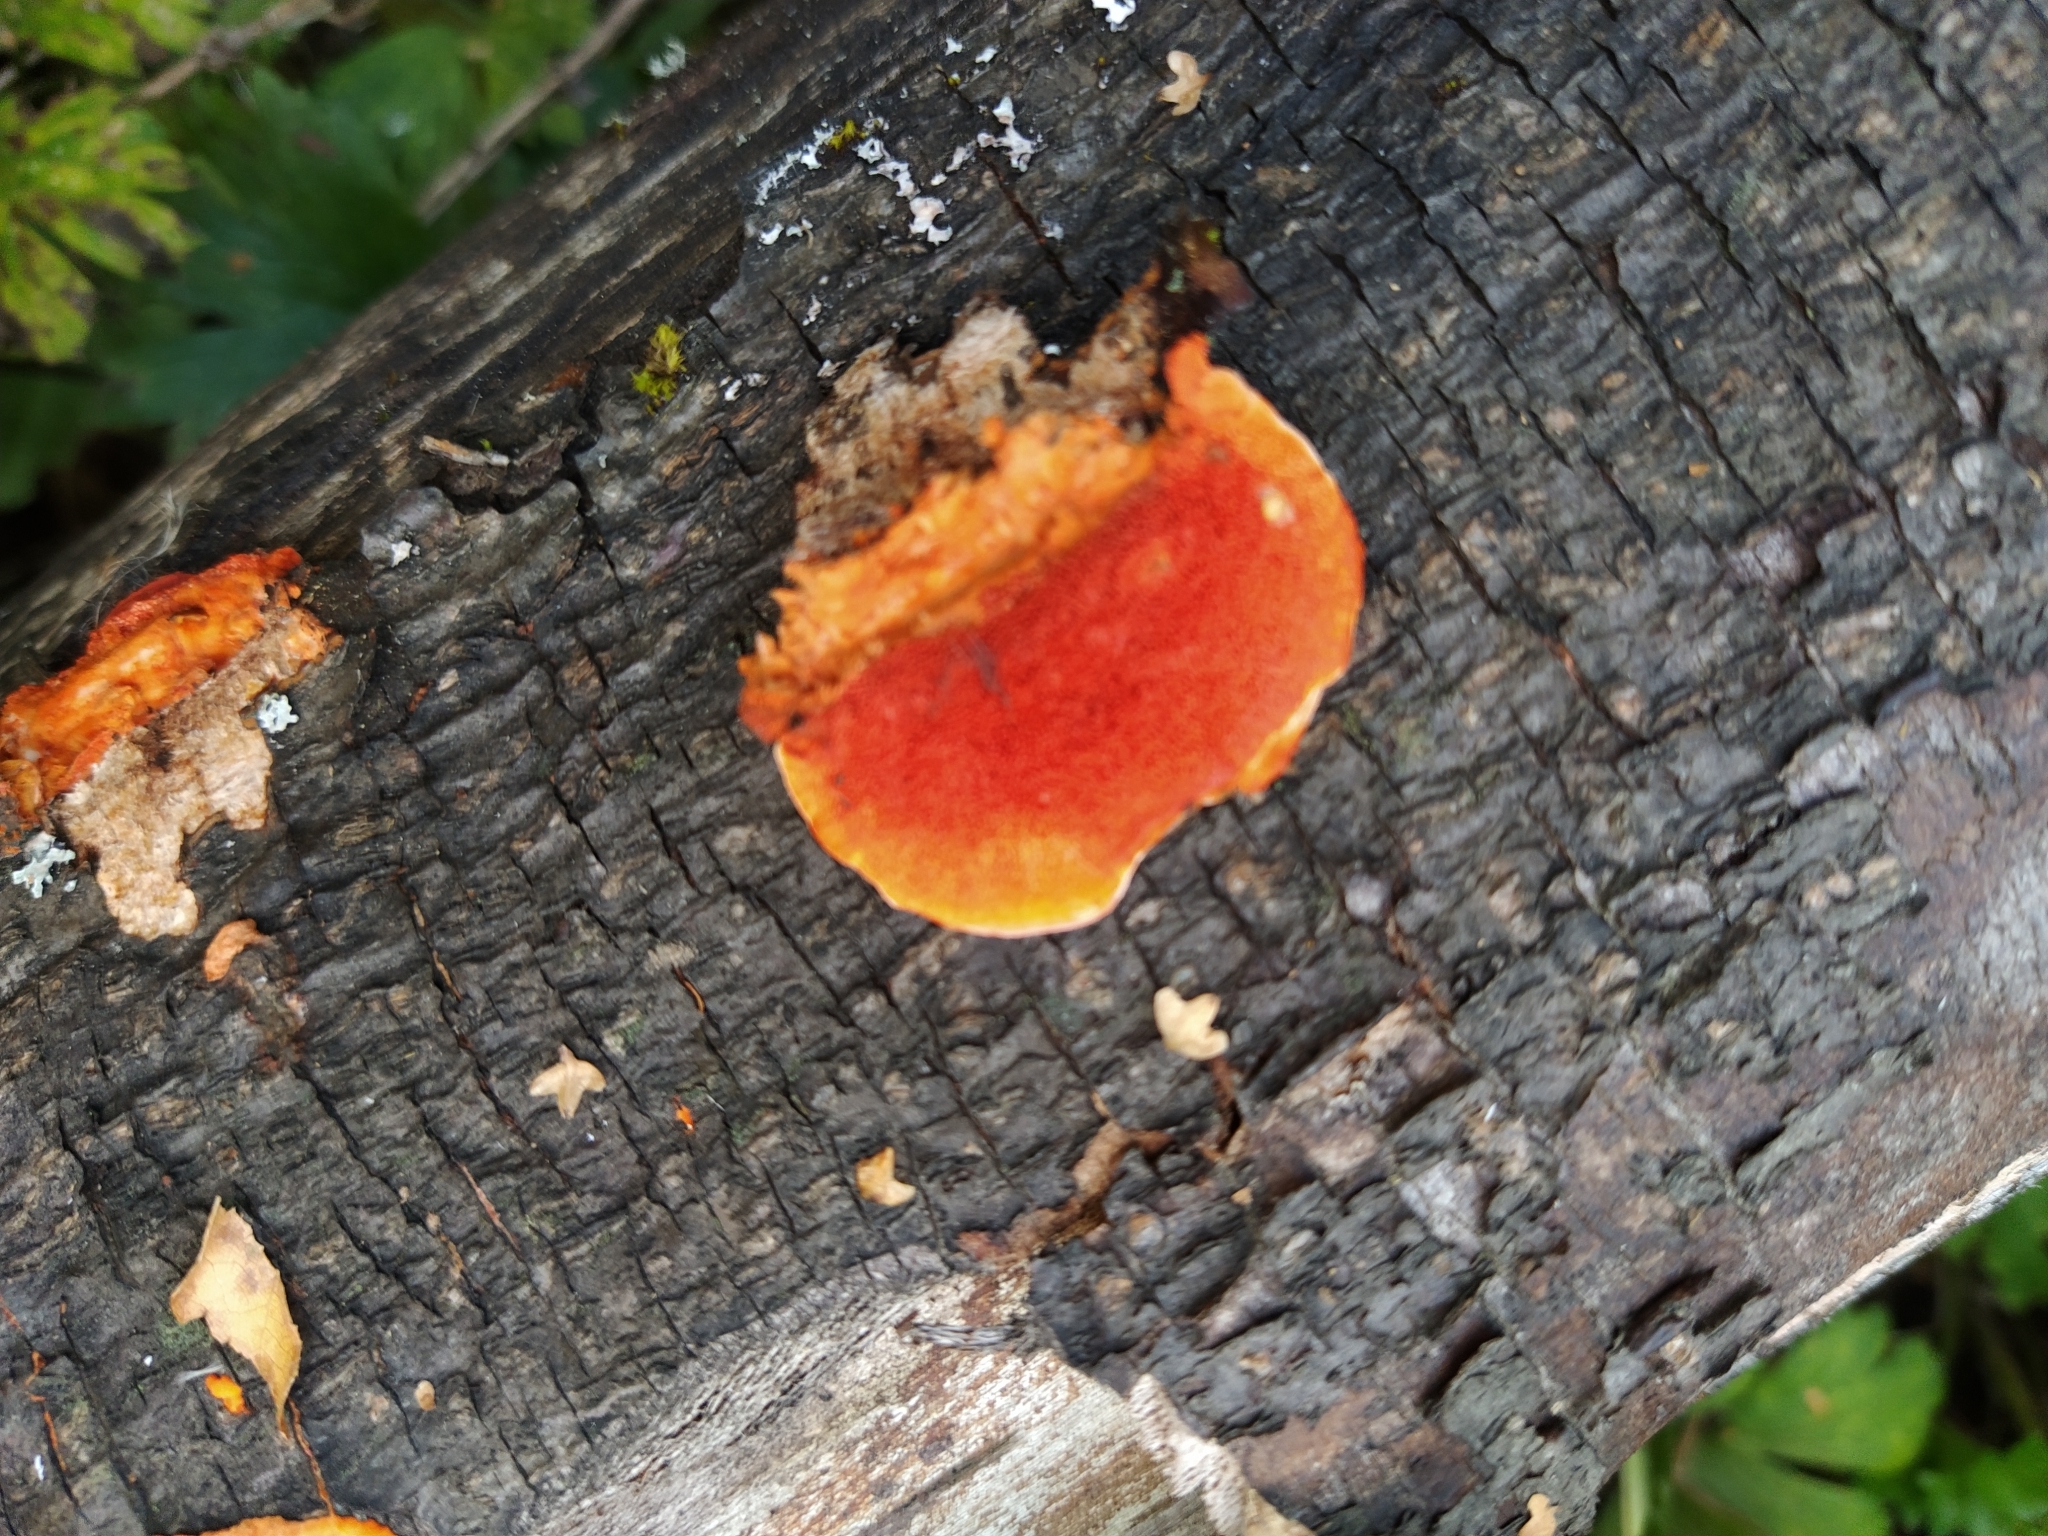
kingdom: Fungi
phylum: Basidiomycota
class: Agaricomycetes
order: Polyporales
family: Polyporaceae
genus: Trametes
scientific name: Trametes cinnabarina
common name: Northern cinnabar polypore
